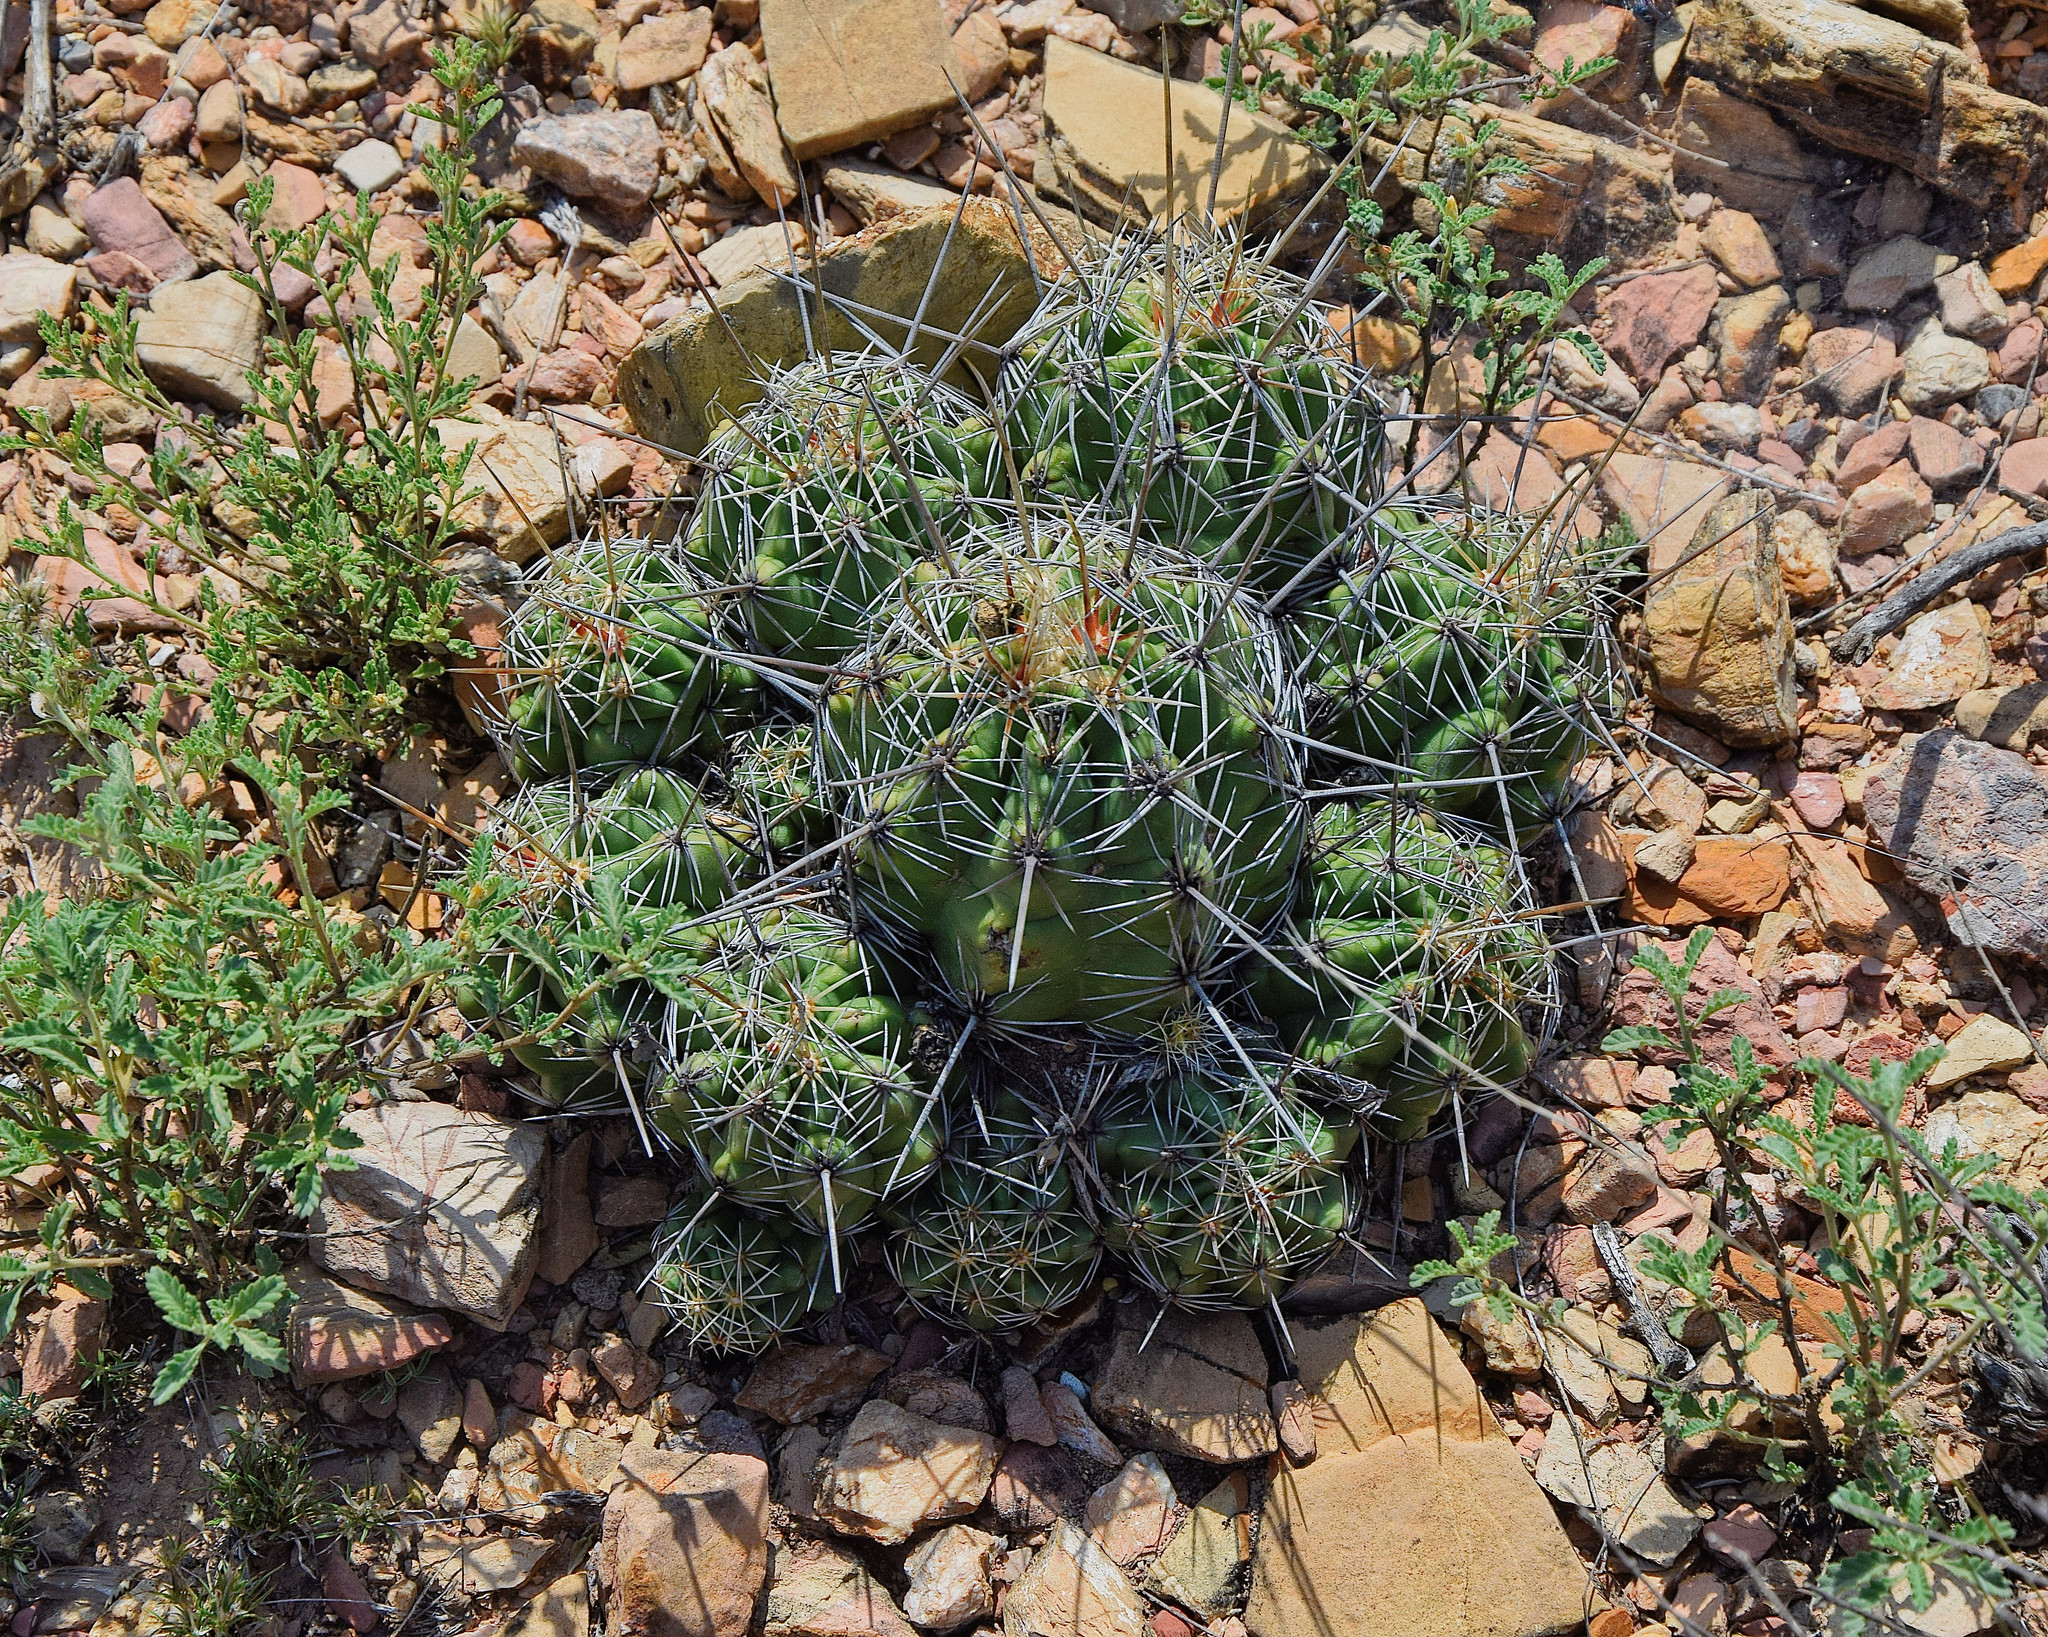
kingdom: Plantae
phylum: Tracheophyta
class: Magnoliopsida
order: Caryophyllales
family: Cactaceae
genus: Thelocactus
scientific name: Thelocactus leucacanthus
